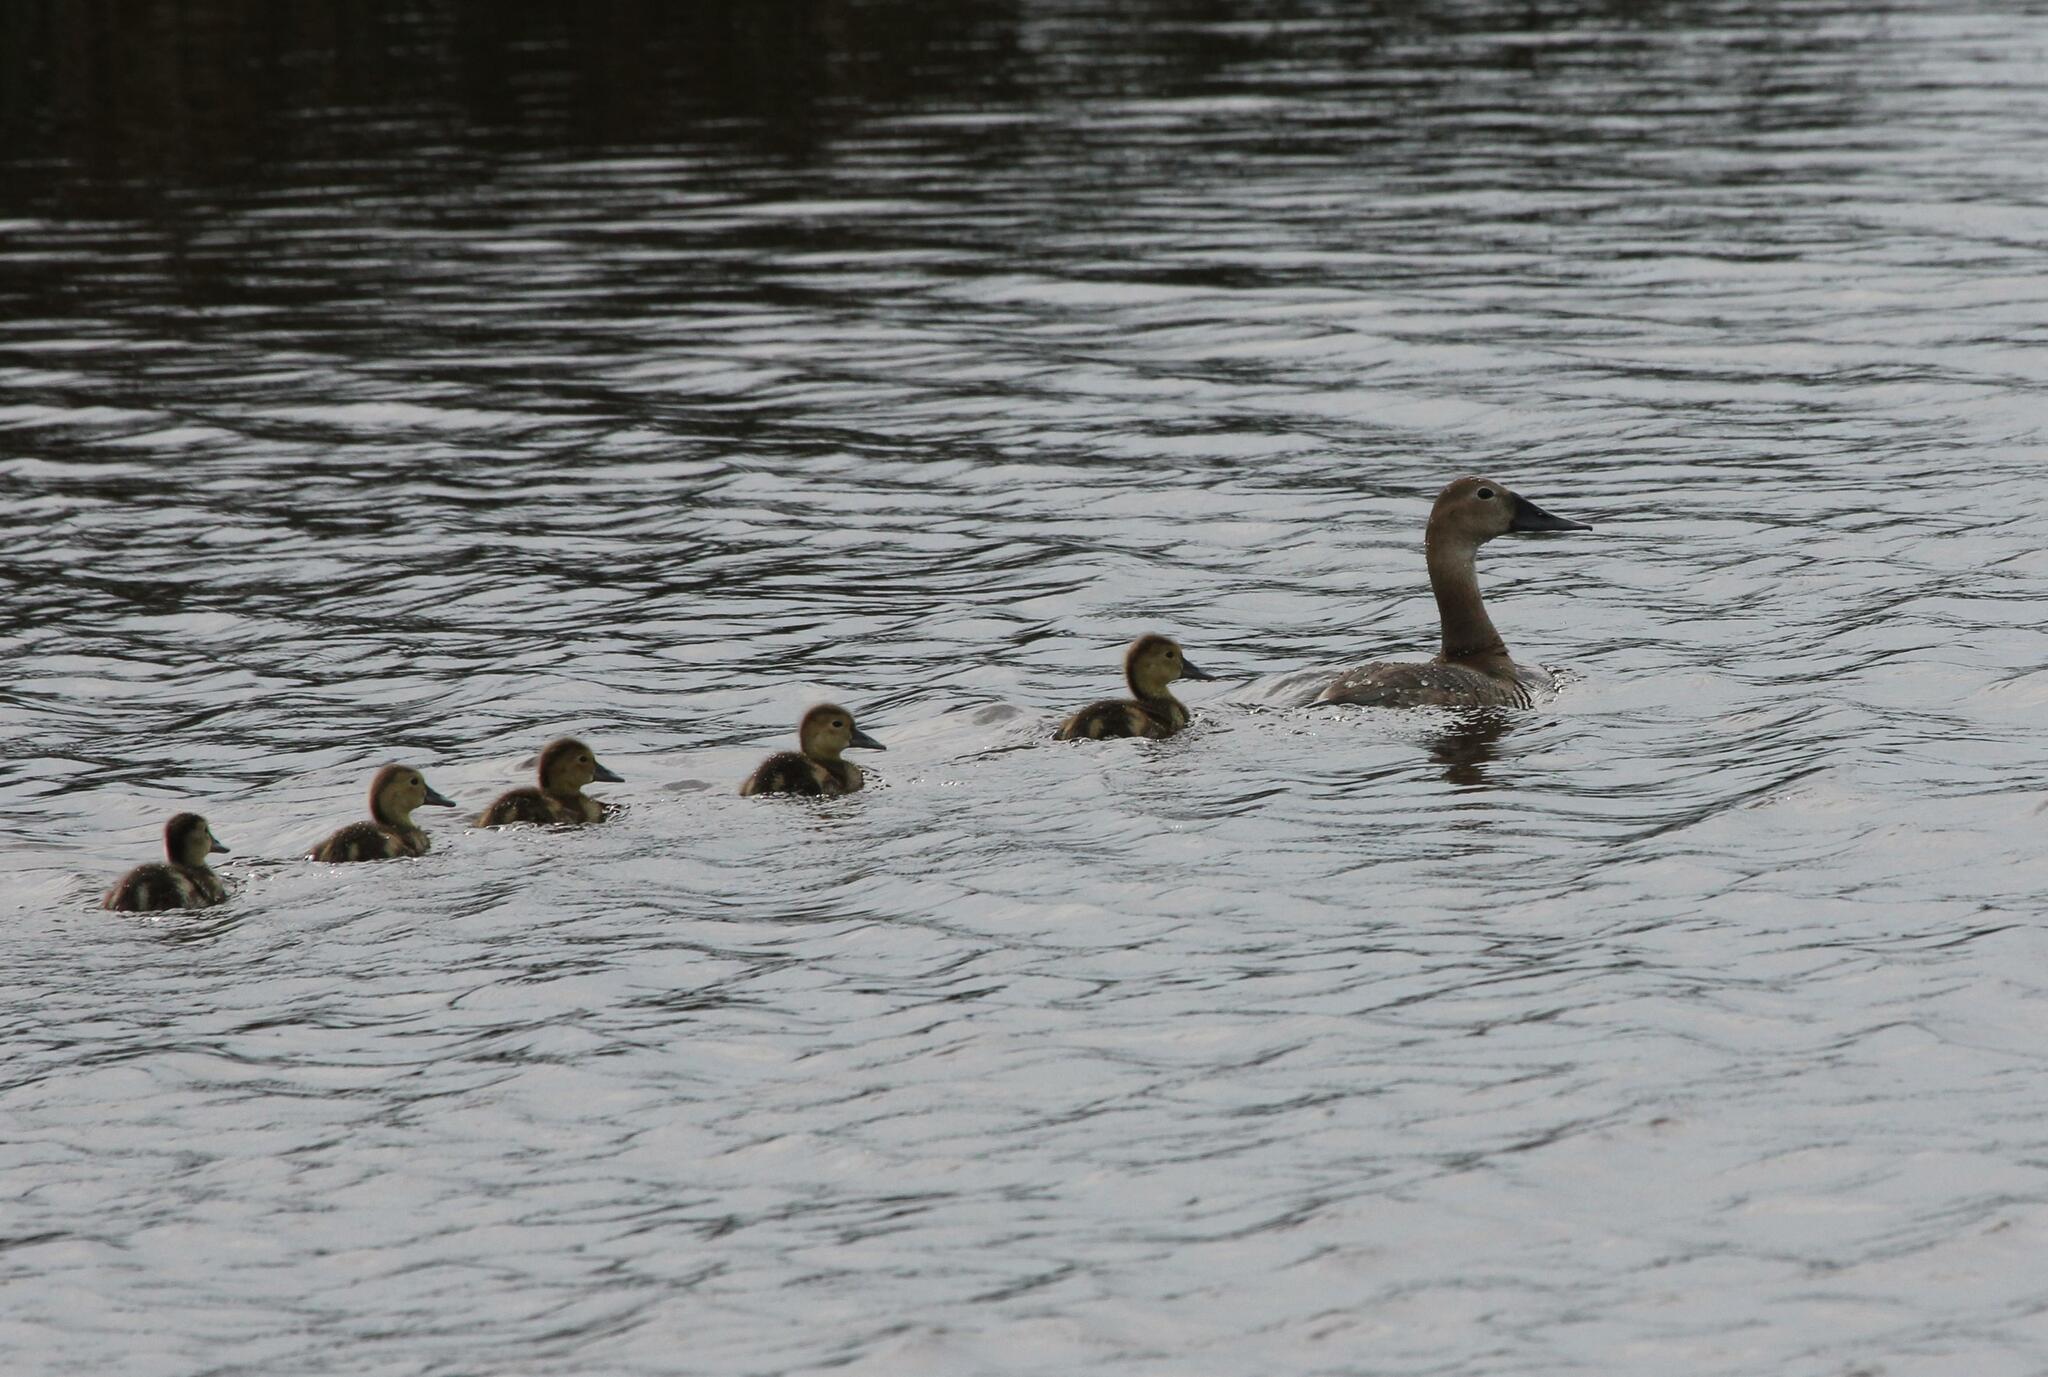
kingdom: Animalia
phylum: Chordata
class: Aves
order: Anseriformes
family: Anatidae
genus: Aythya
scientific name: Aythya valisineria
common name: Canvasback
